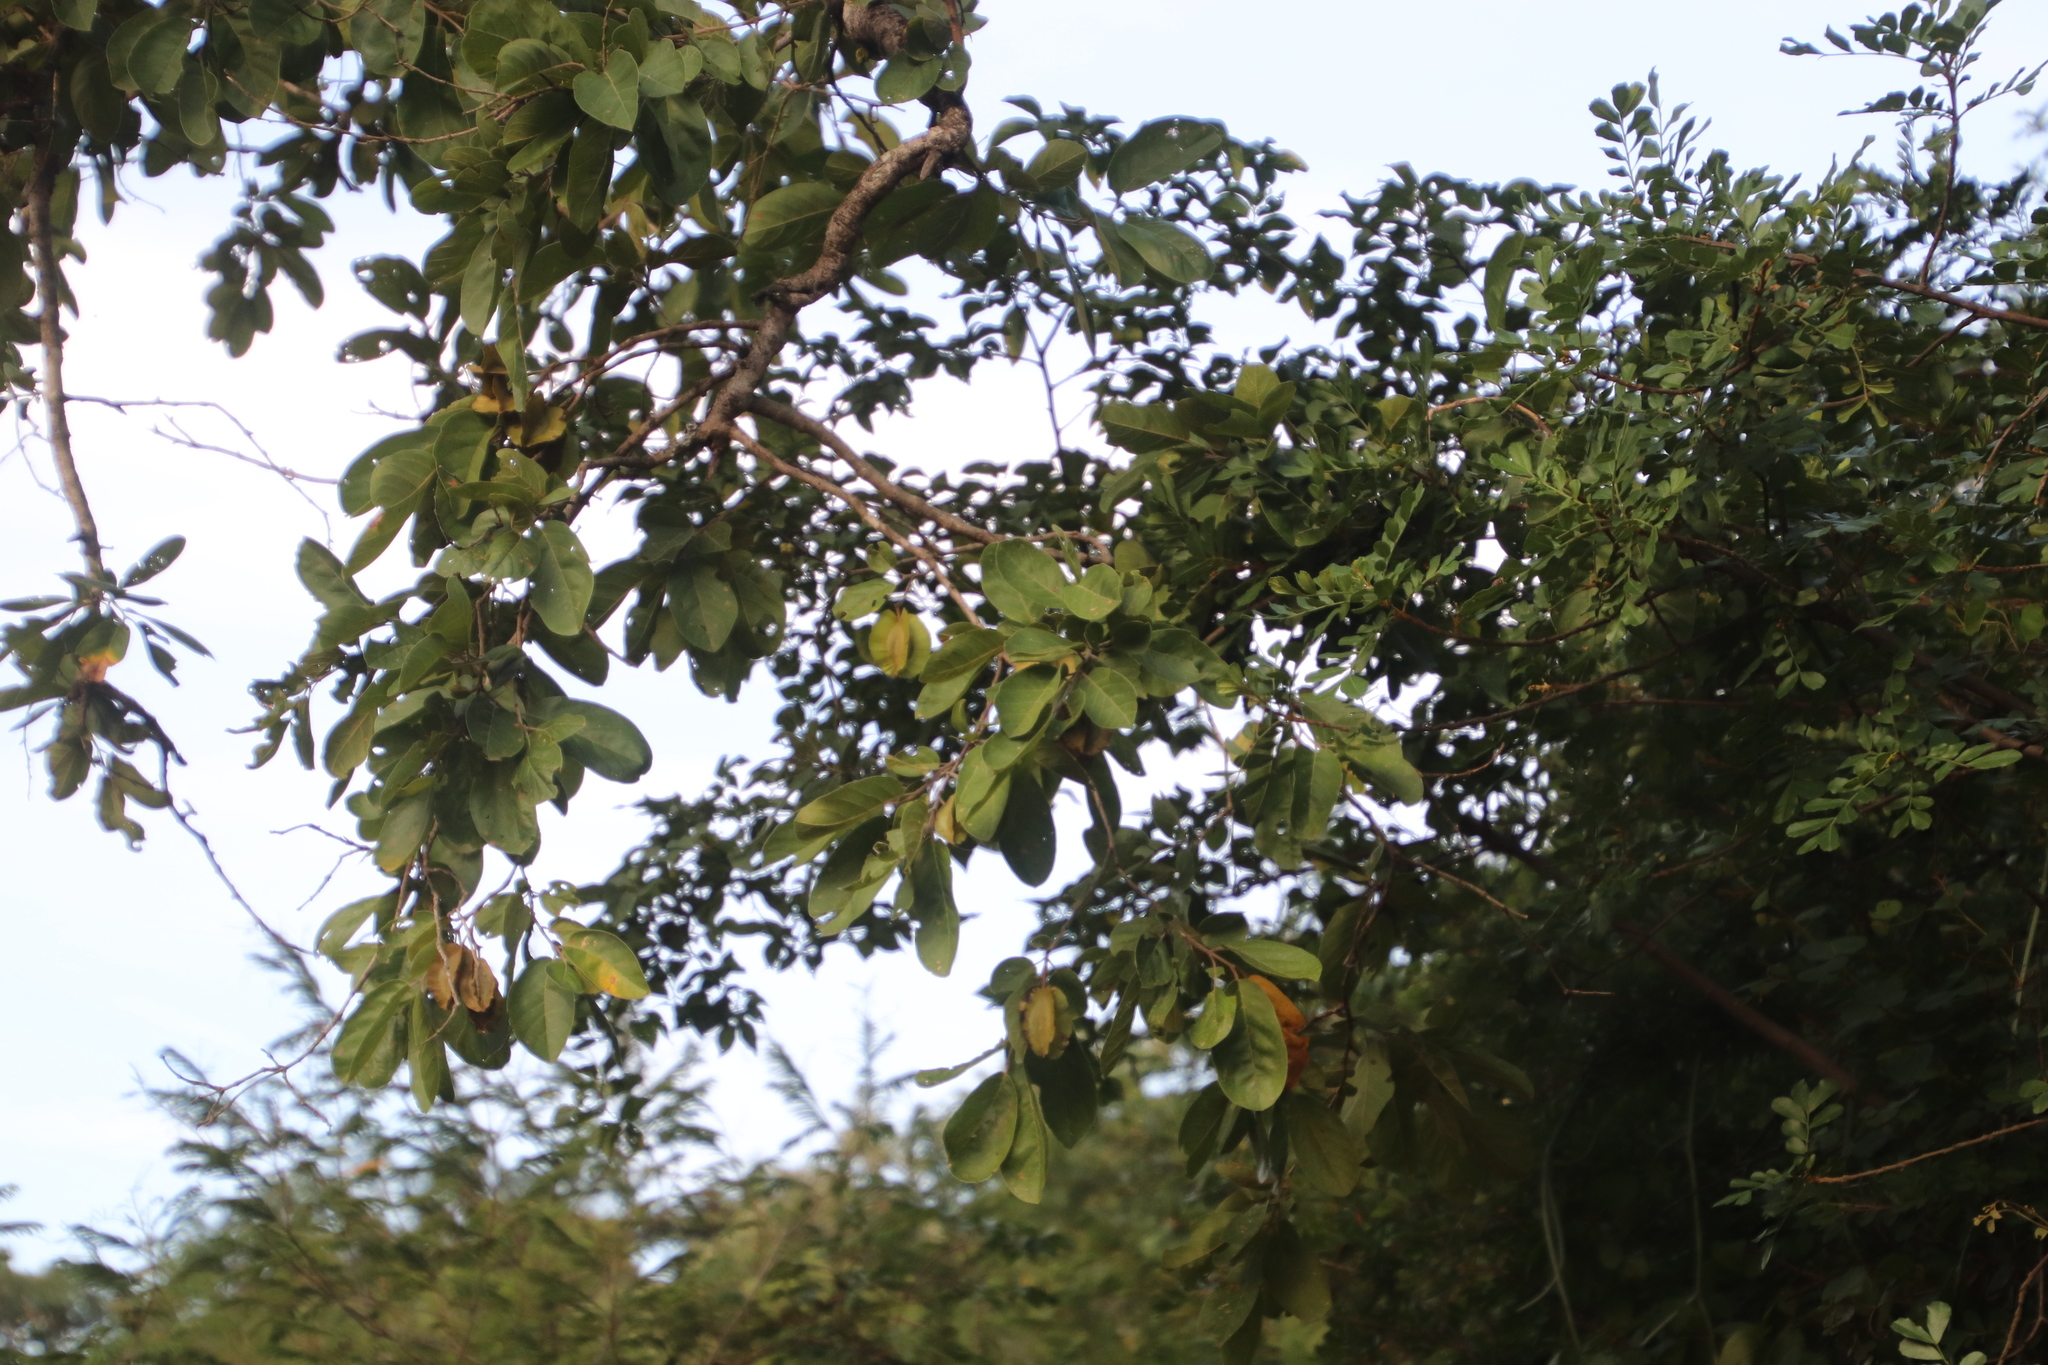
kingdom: Plantae
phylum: Tracheophyta
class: Magnoliopsida
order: Myrtales
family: Combretaceae
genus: Combretum
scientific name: Combretum zeyheri
